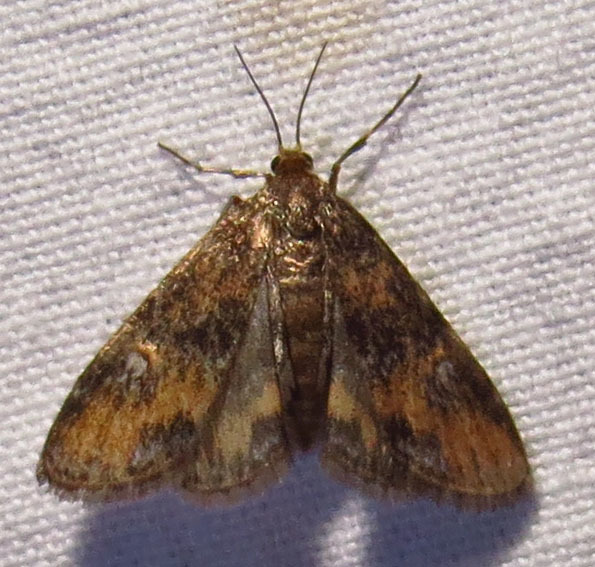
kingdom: Animalia
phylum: Arthropoda
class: Insecta
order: Lepidoptera
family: Crambidae
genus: Elophila
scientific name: Elophila obliteralis
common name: Waterlily leafcutter moth
